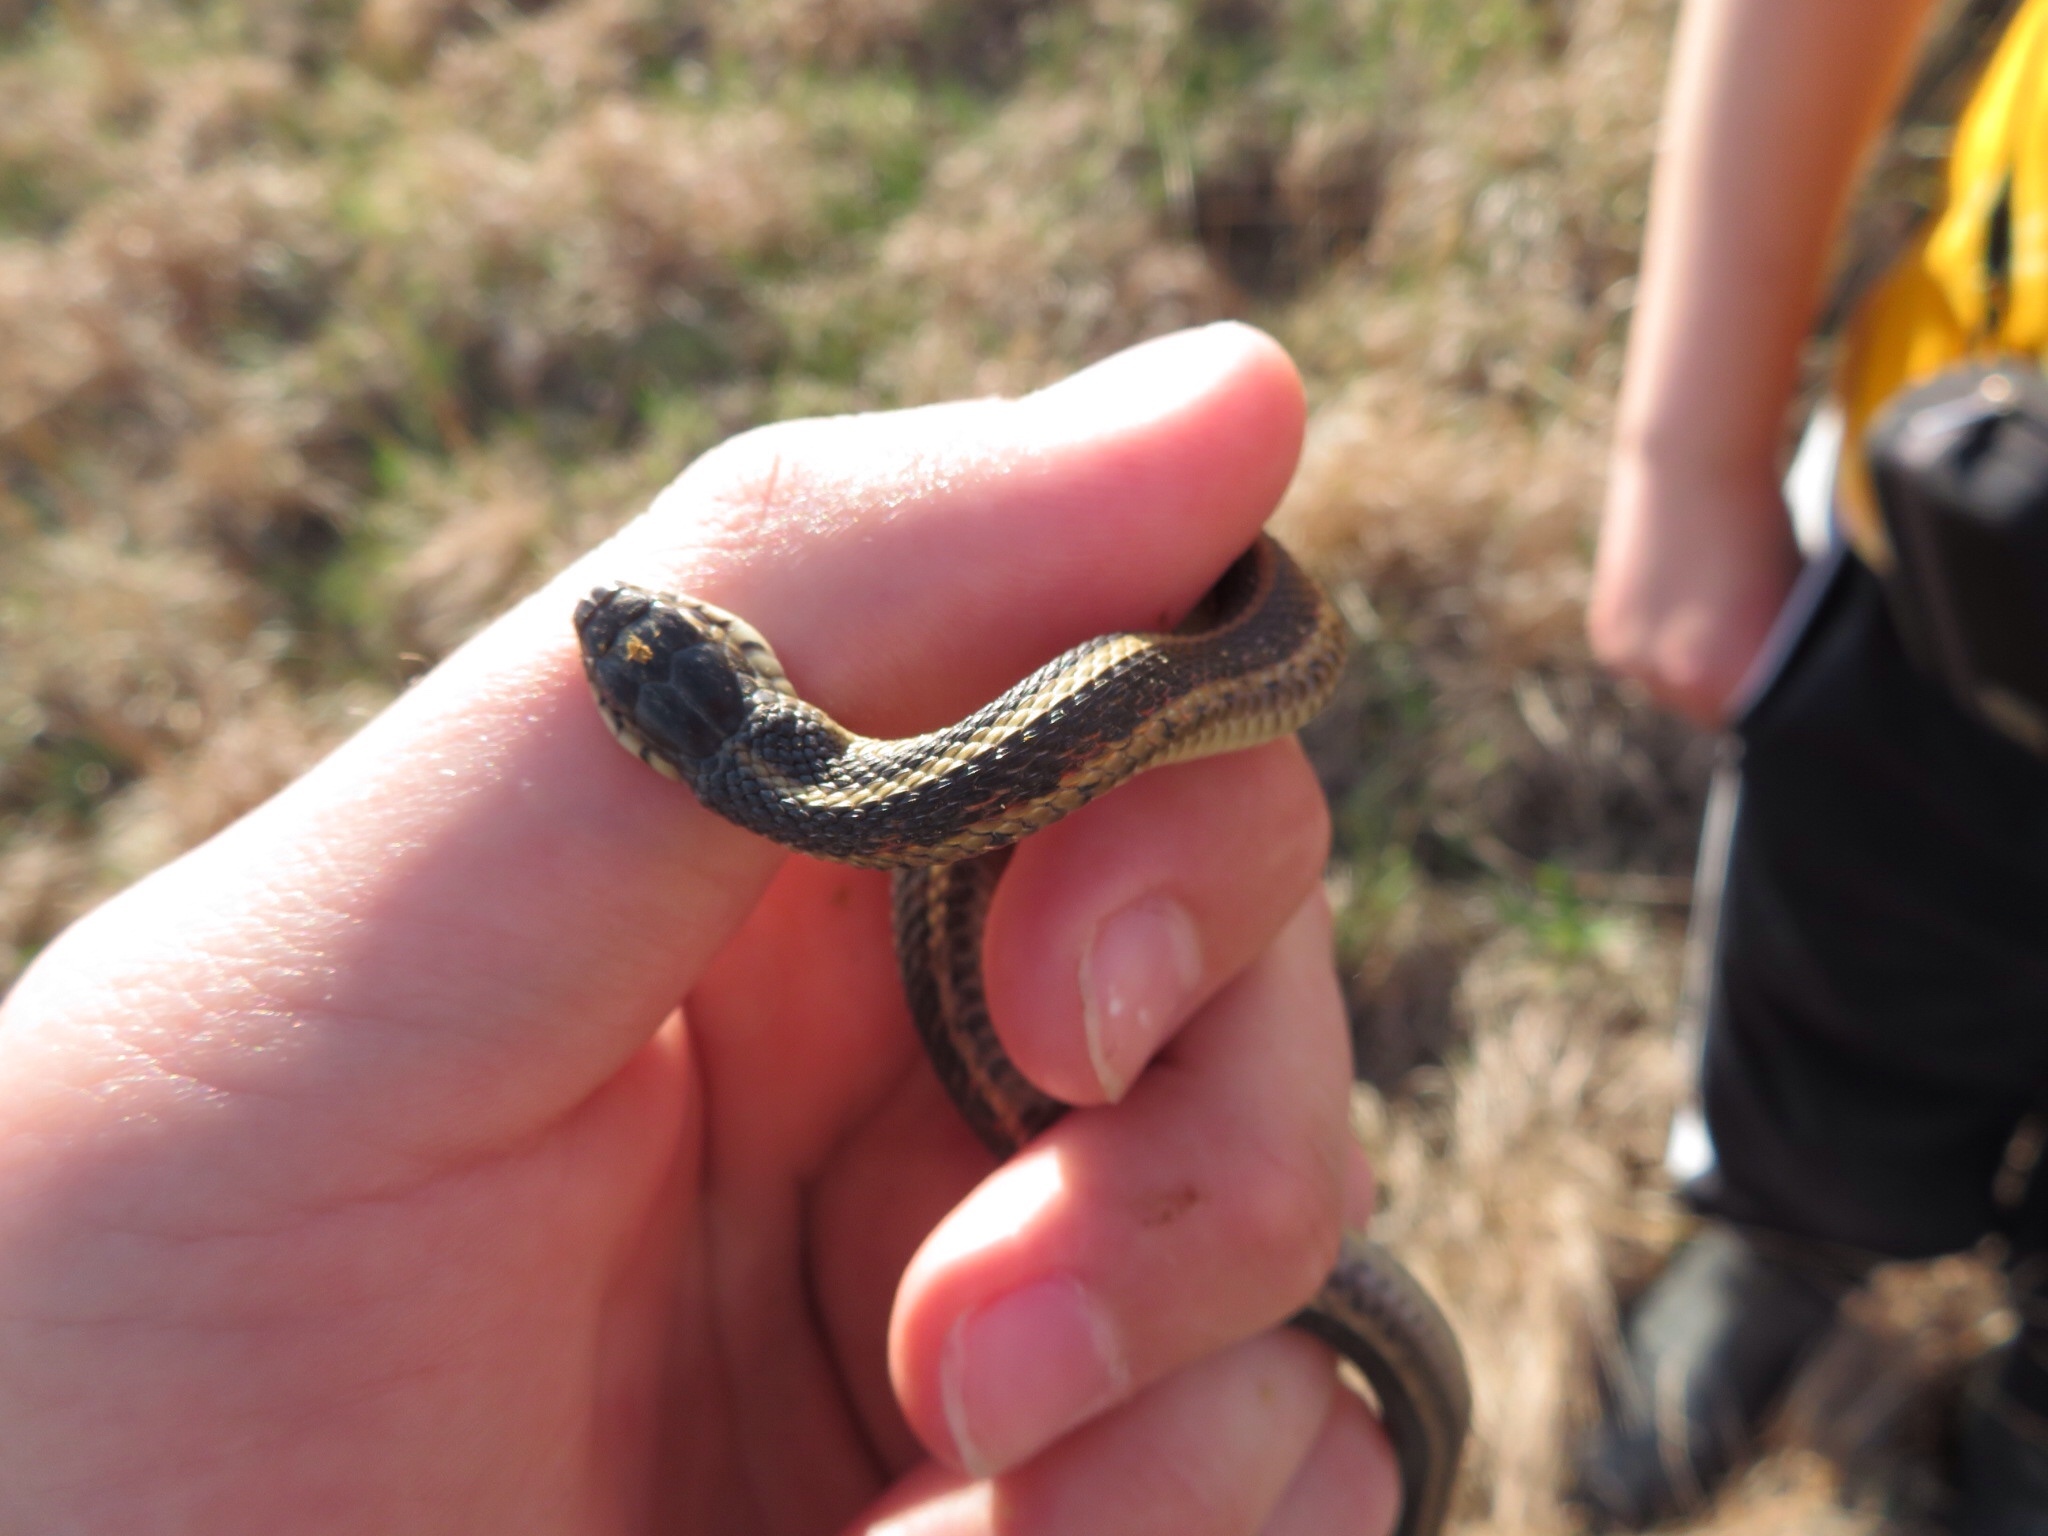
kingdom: Animalia
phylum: Chordata
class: Squamata
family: Colubridae
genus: Thamnophis
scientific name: Thamnophis sirtalis
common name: Common garter snake
